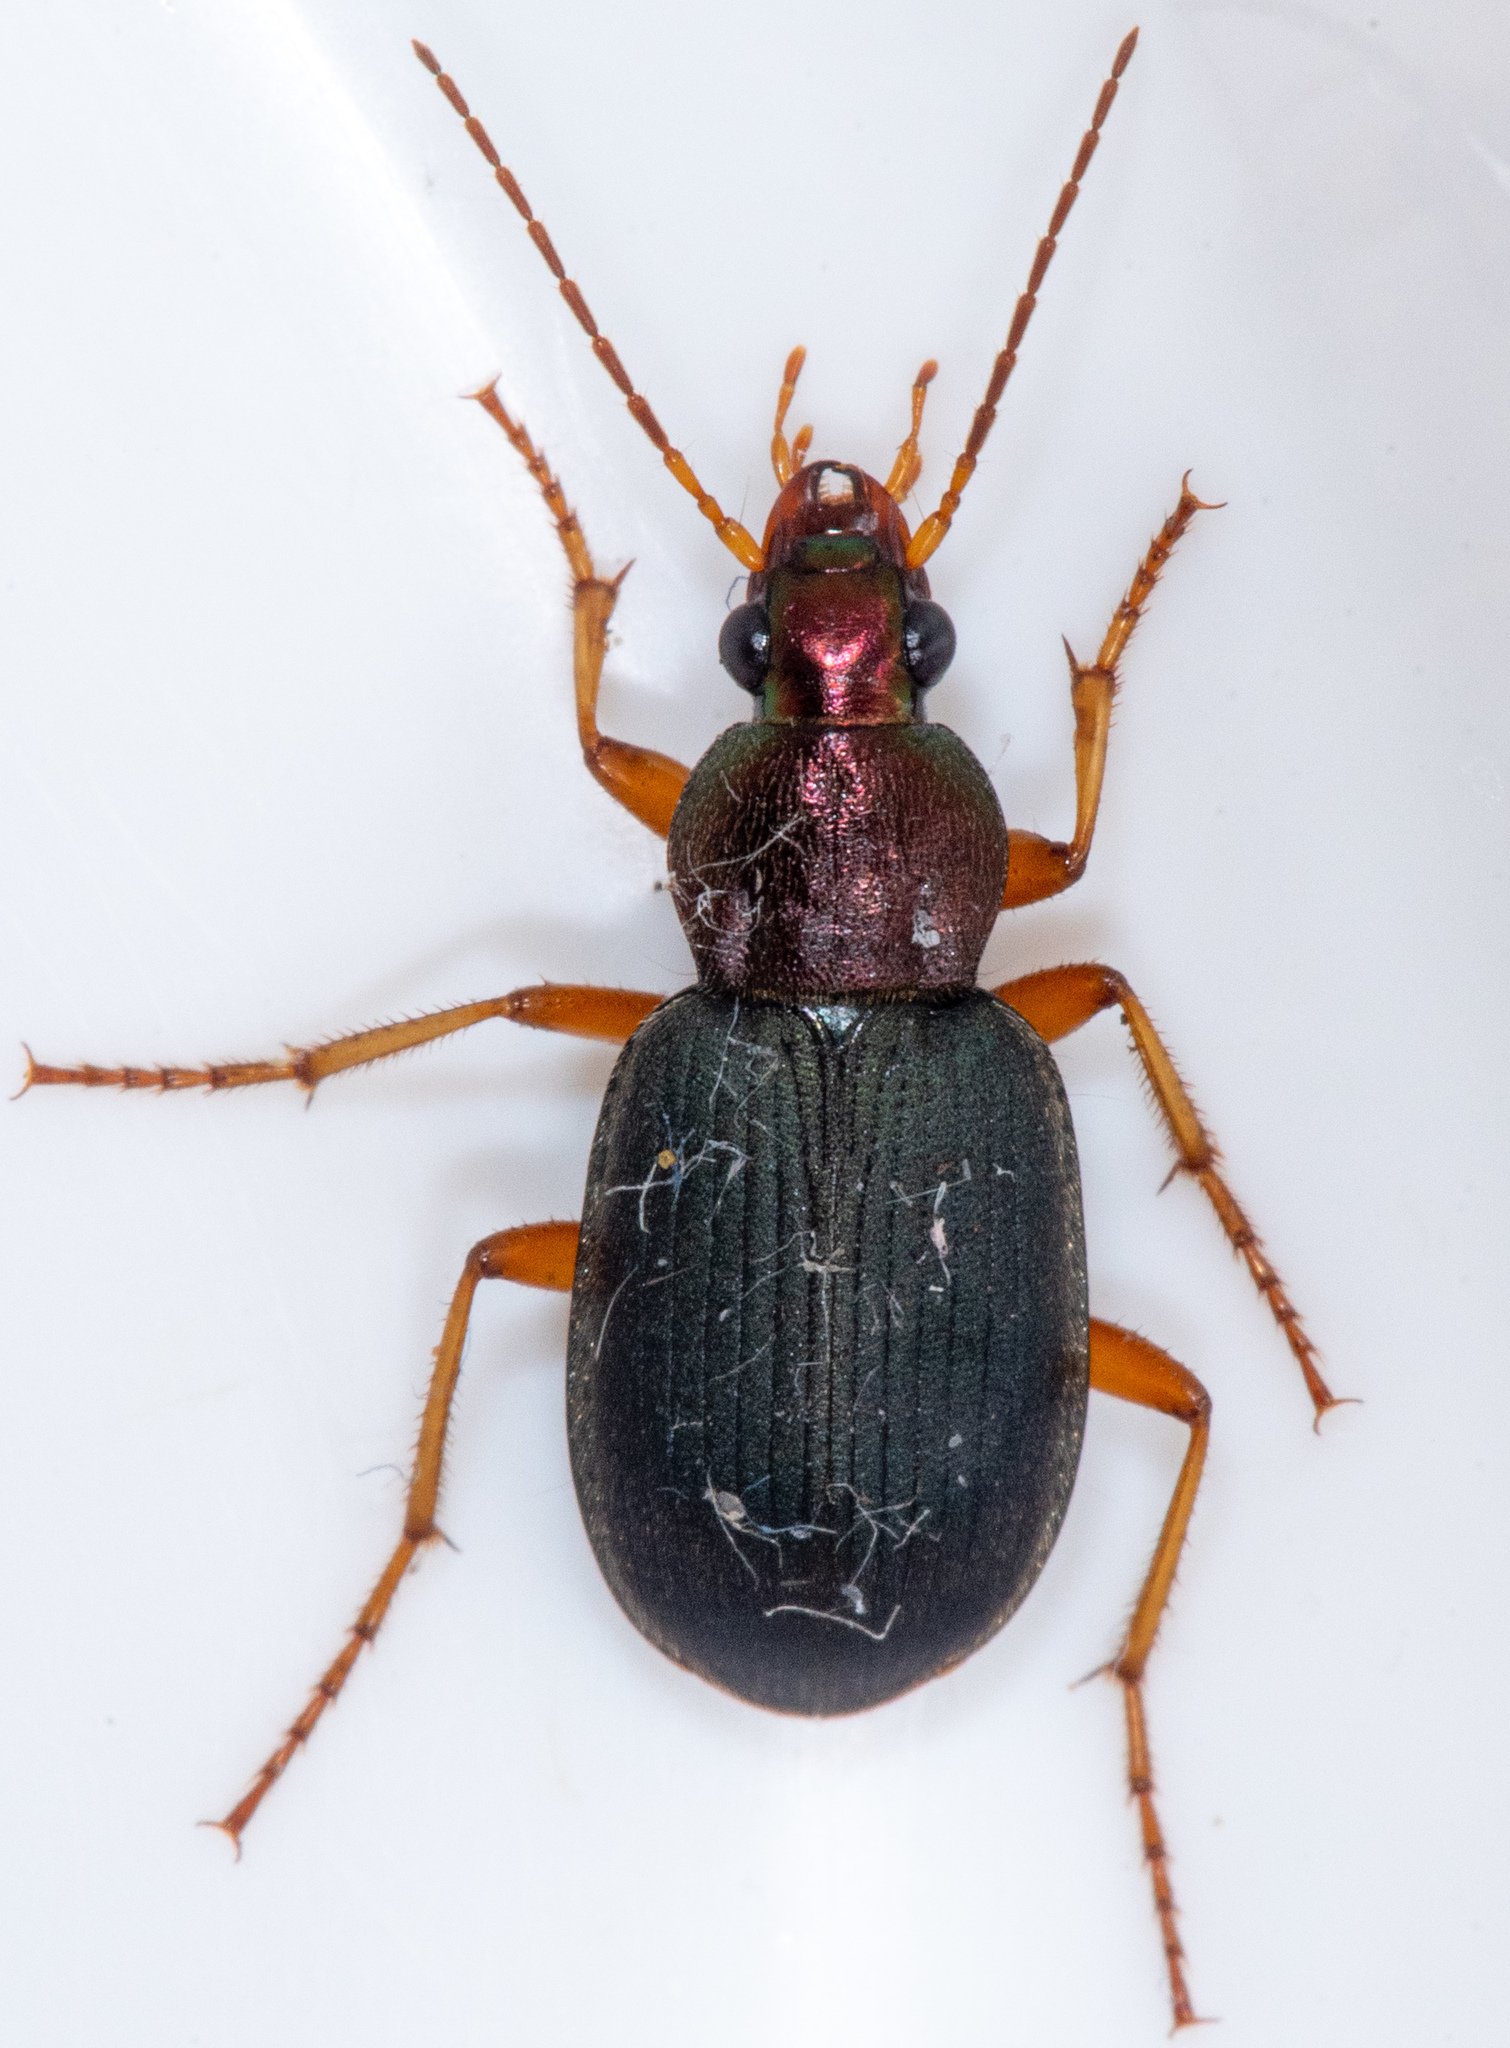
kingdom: Animalia
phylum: Arthropoda
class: Insecta
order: Coleoptera
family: Carabidae
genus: Chlaenius
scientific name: Chlaenius tricolor
